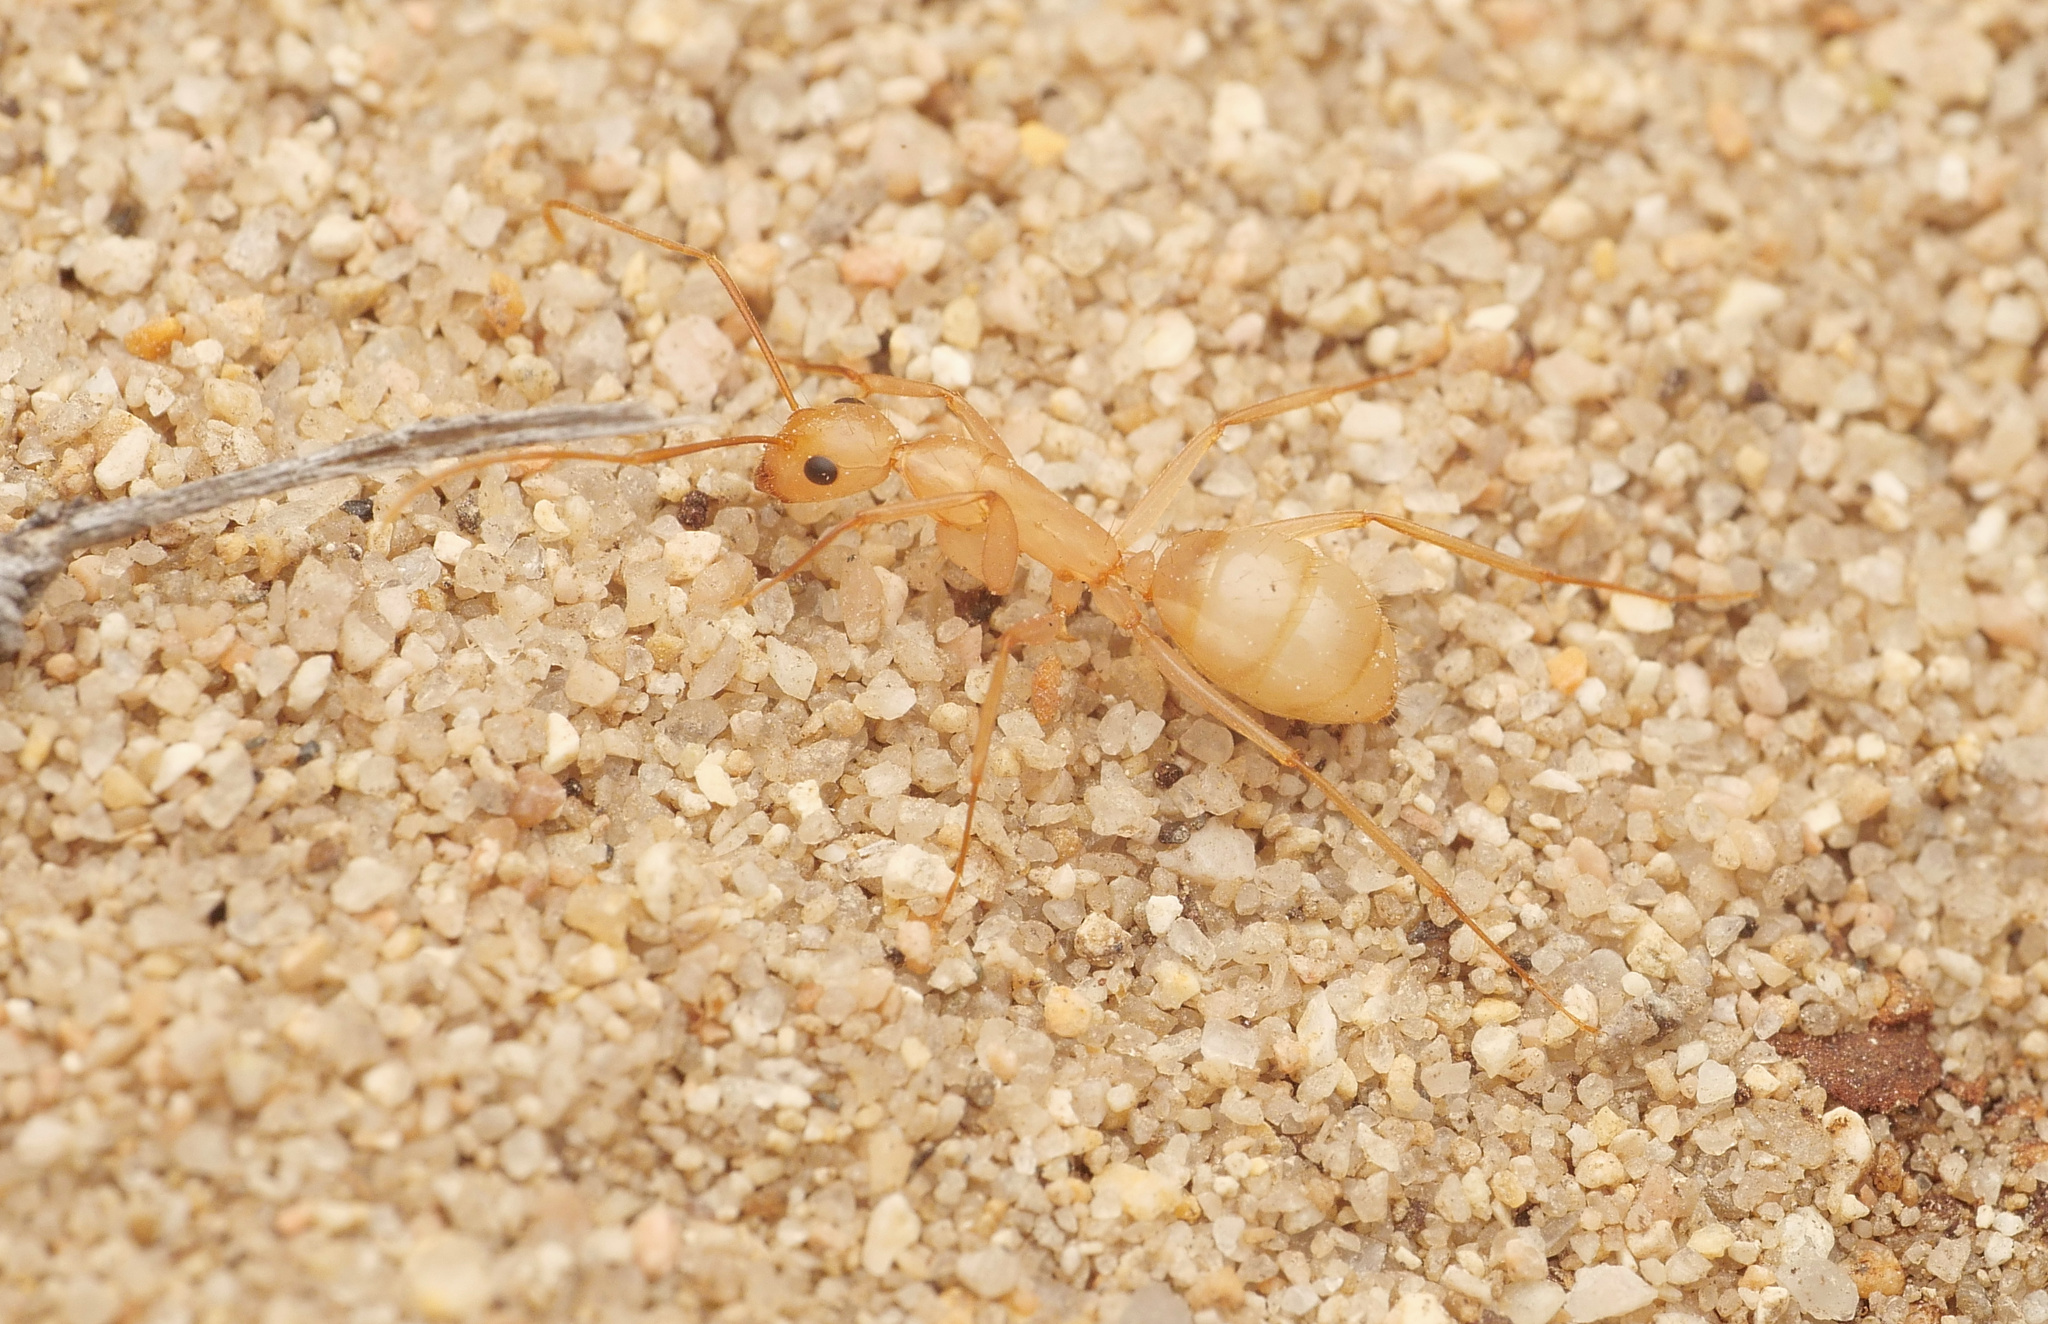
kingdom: Animalia
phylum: Arthropoda
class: Insecta
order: Hymenoptera
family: Formicidae
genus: Camponotus
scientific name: Camponotus fragilis
